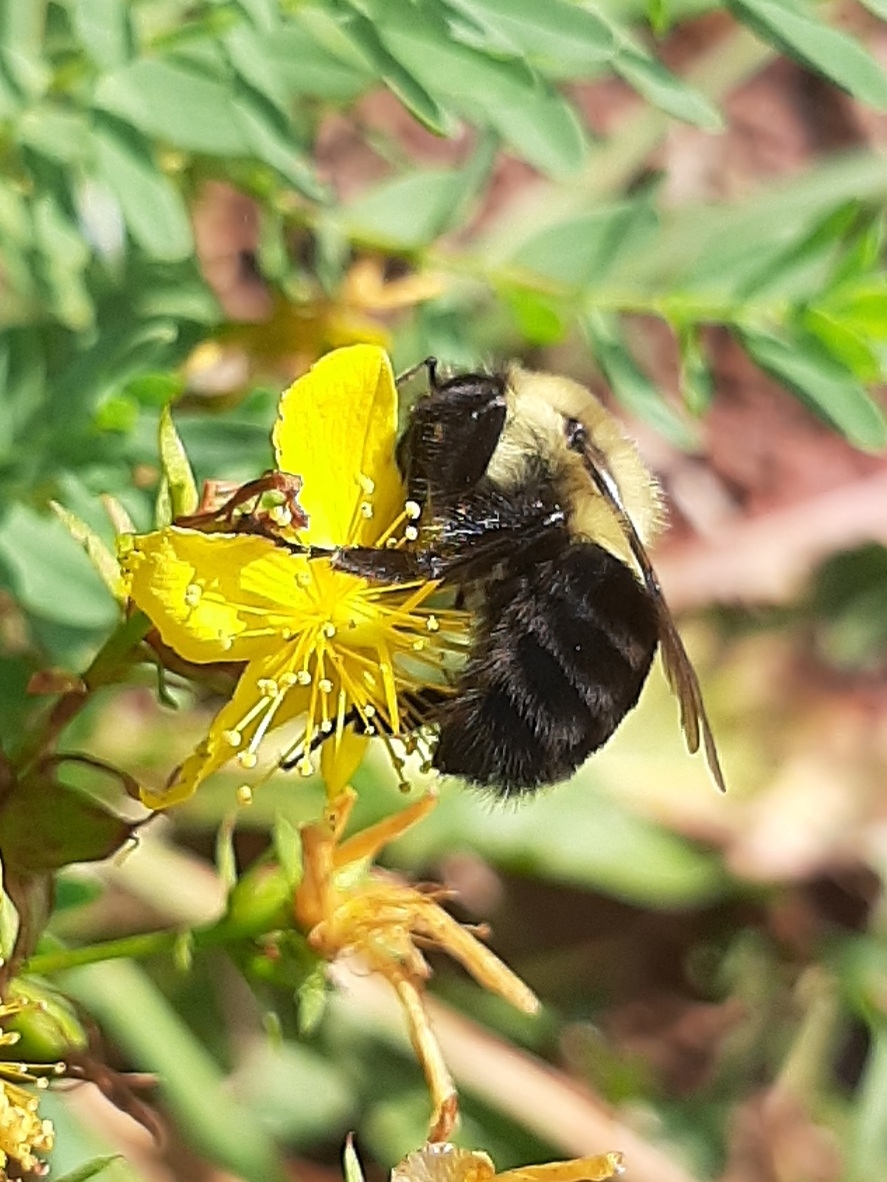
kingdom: Animalia
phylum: Arthropoda
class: Insecta
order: Hymenoptera
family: Apidae
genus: Bombus
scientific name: Bombus impatiens
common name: Common eastern bumble bee
